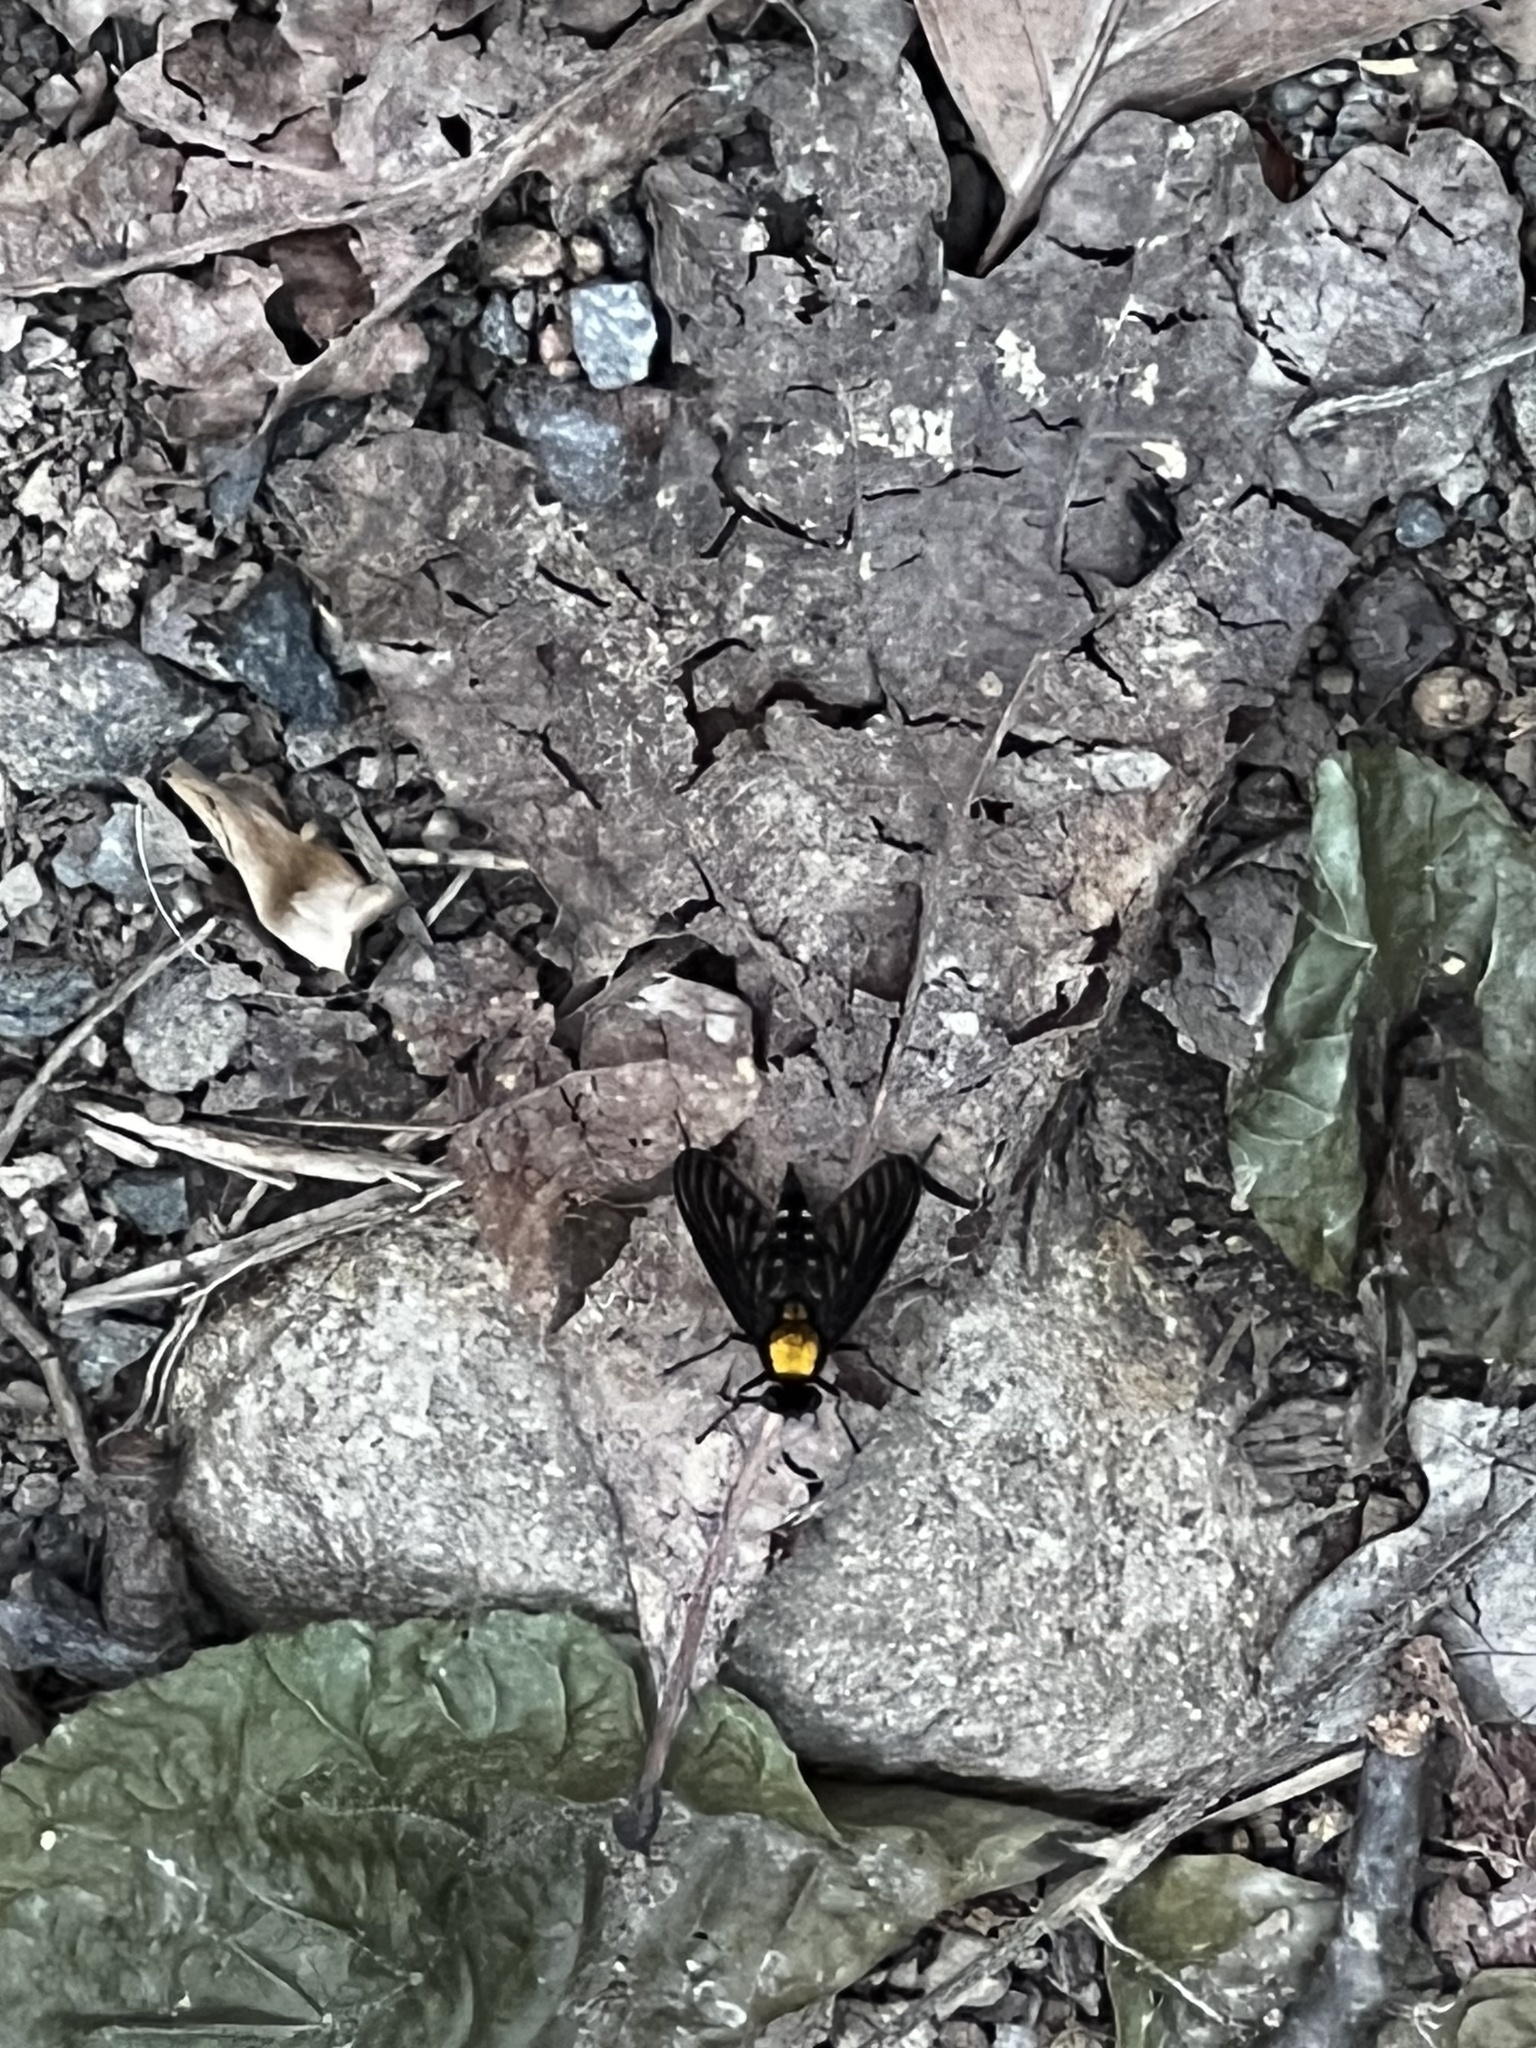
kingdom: Animalia
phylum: Arthropoda
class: Insecta
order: Diptera
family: Rhagionidae
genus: Chrysopilus
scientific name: Chrysopilus thoracicus
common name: Golden-backed snipe fly
